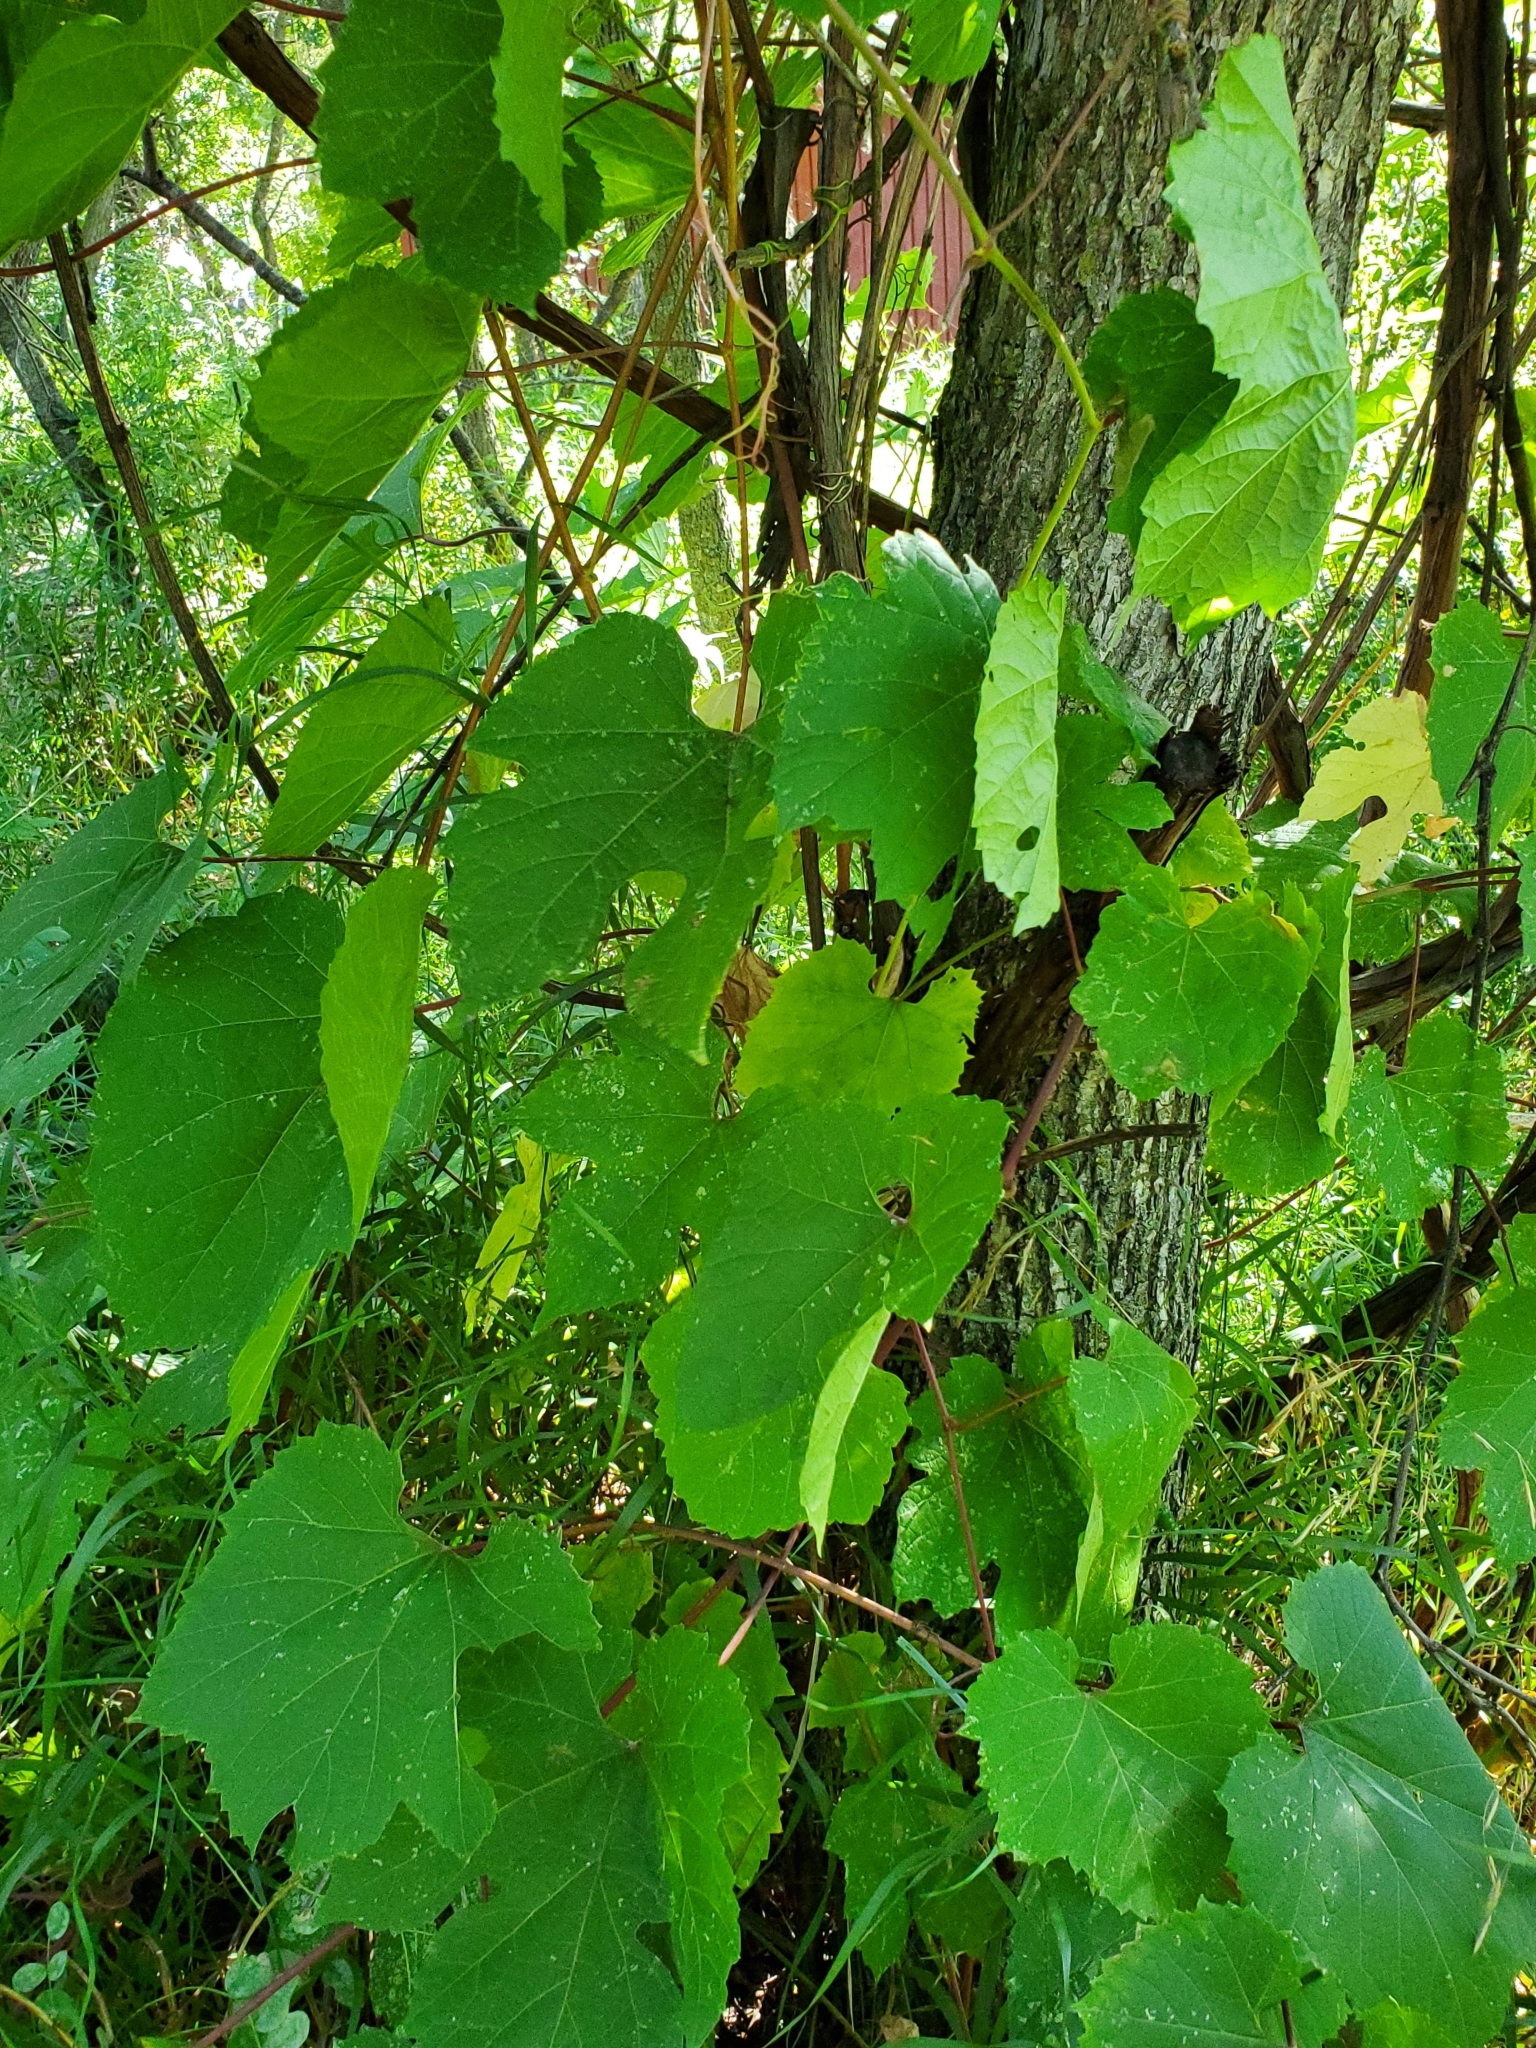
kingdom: Plantae
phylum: Tracheophyta
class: Magnoliopsida
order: Vitales
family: Vitaceae
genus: Vitis
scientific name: Vitis riparia
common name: Frost grape
